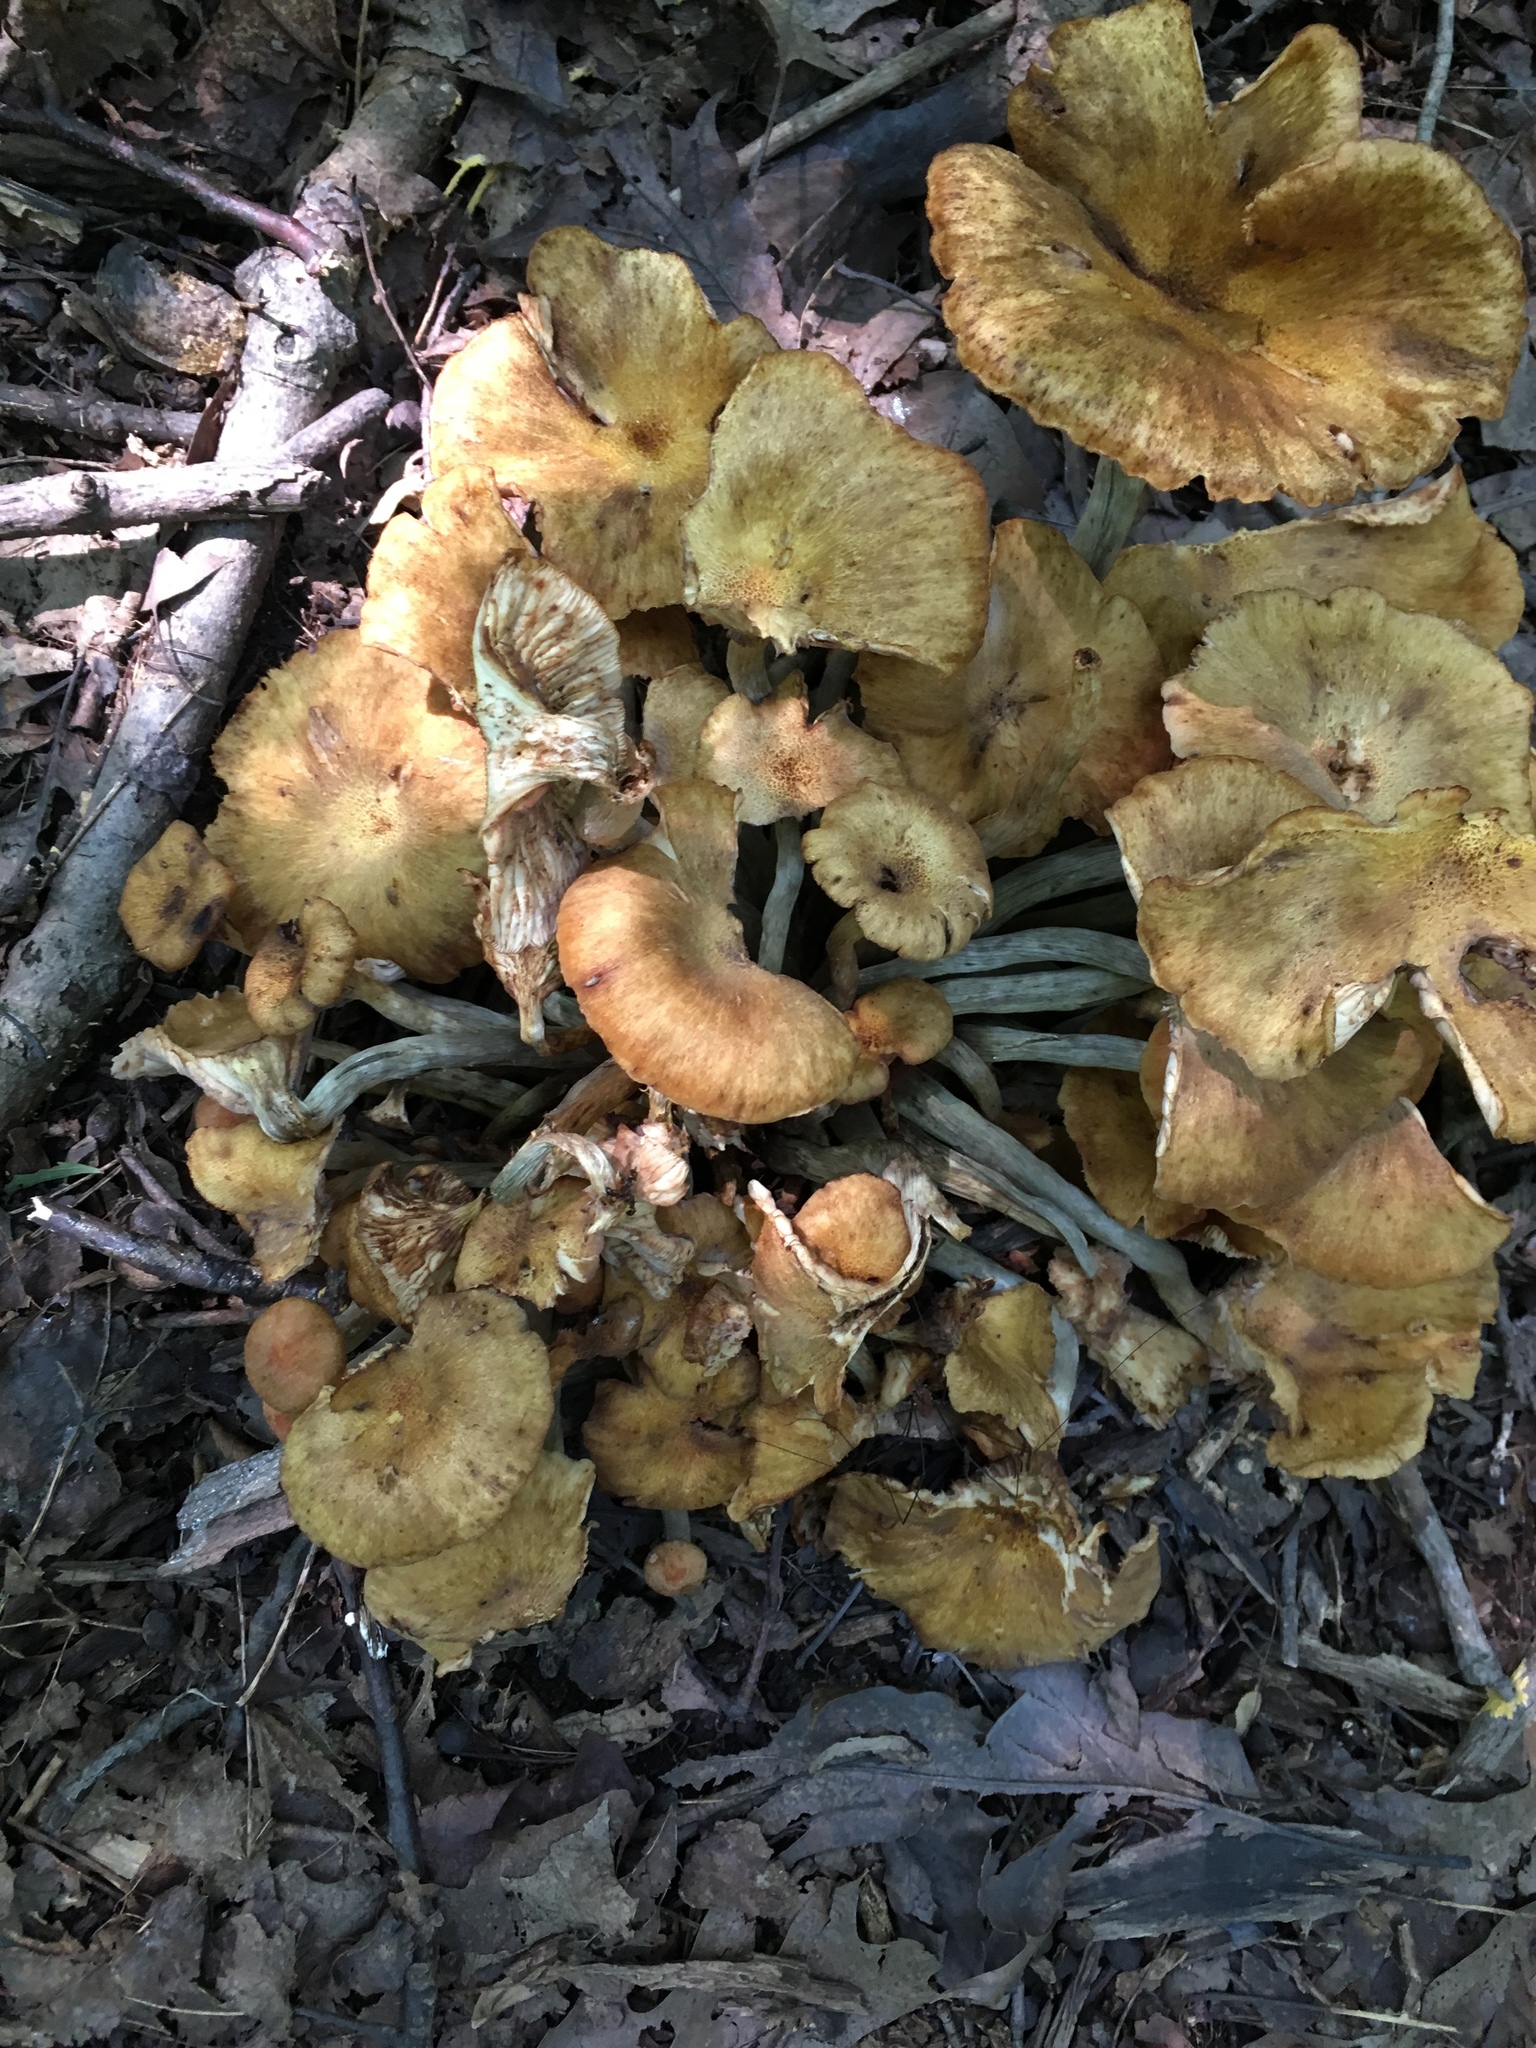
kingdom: Fungi
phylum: Basidiomycota
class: Agaricomycetes
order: Agaricales
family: Physalacriaceae
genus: Desarmillaria
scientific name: Desarmillaria caespitosa
